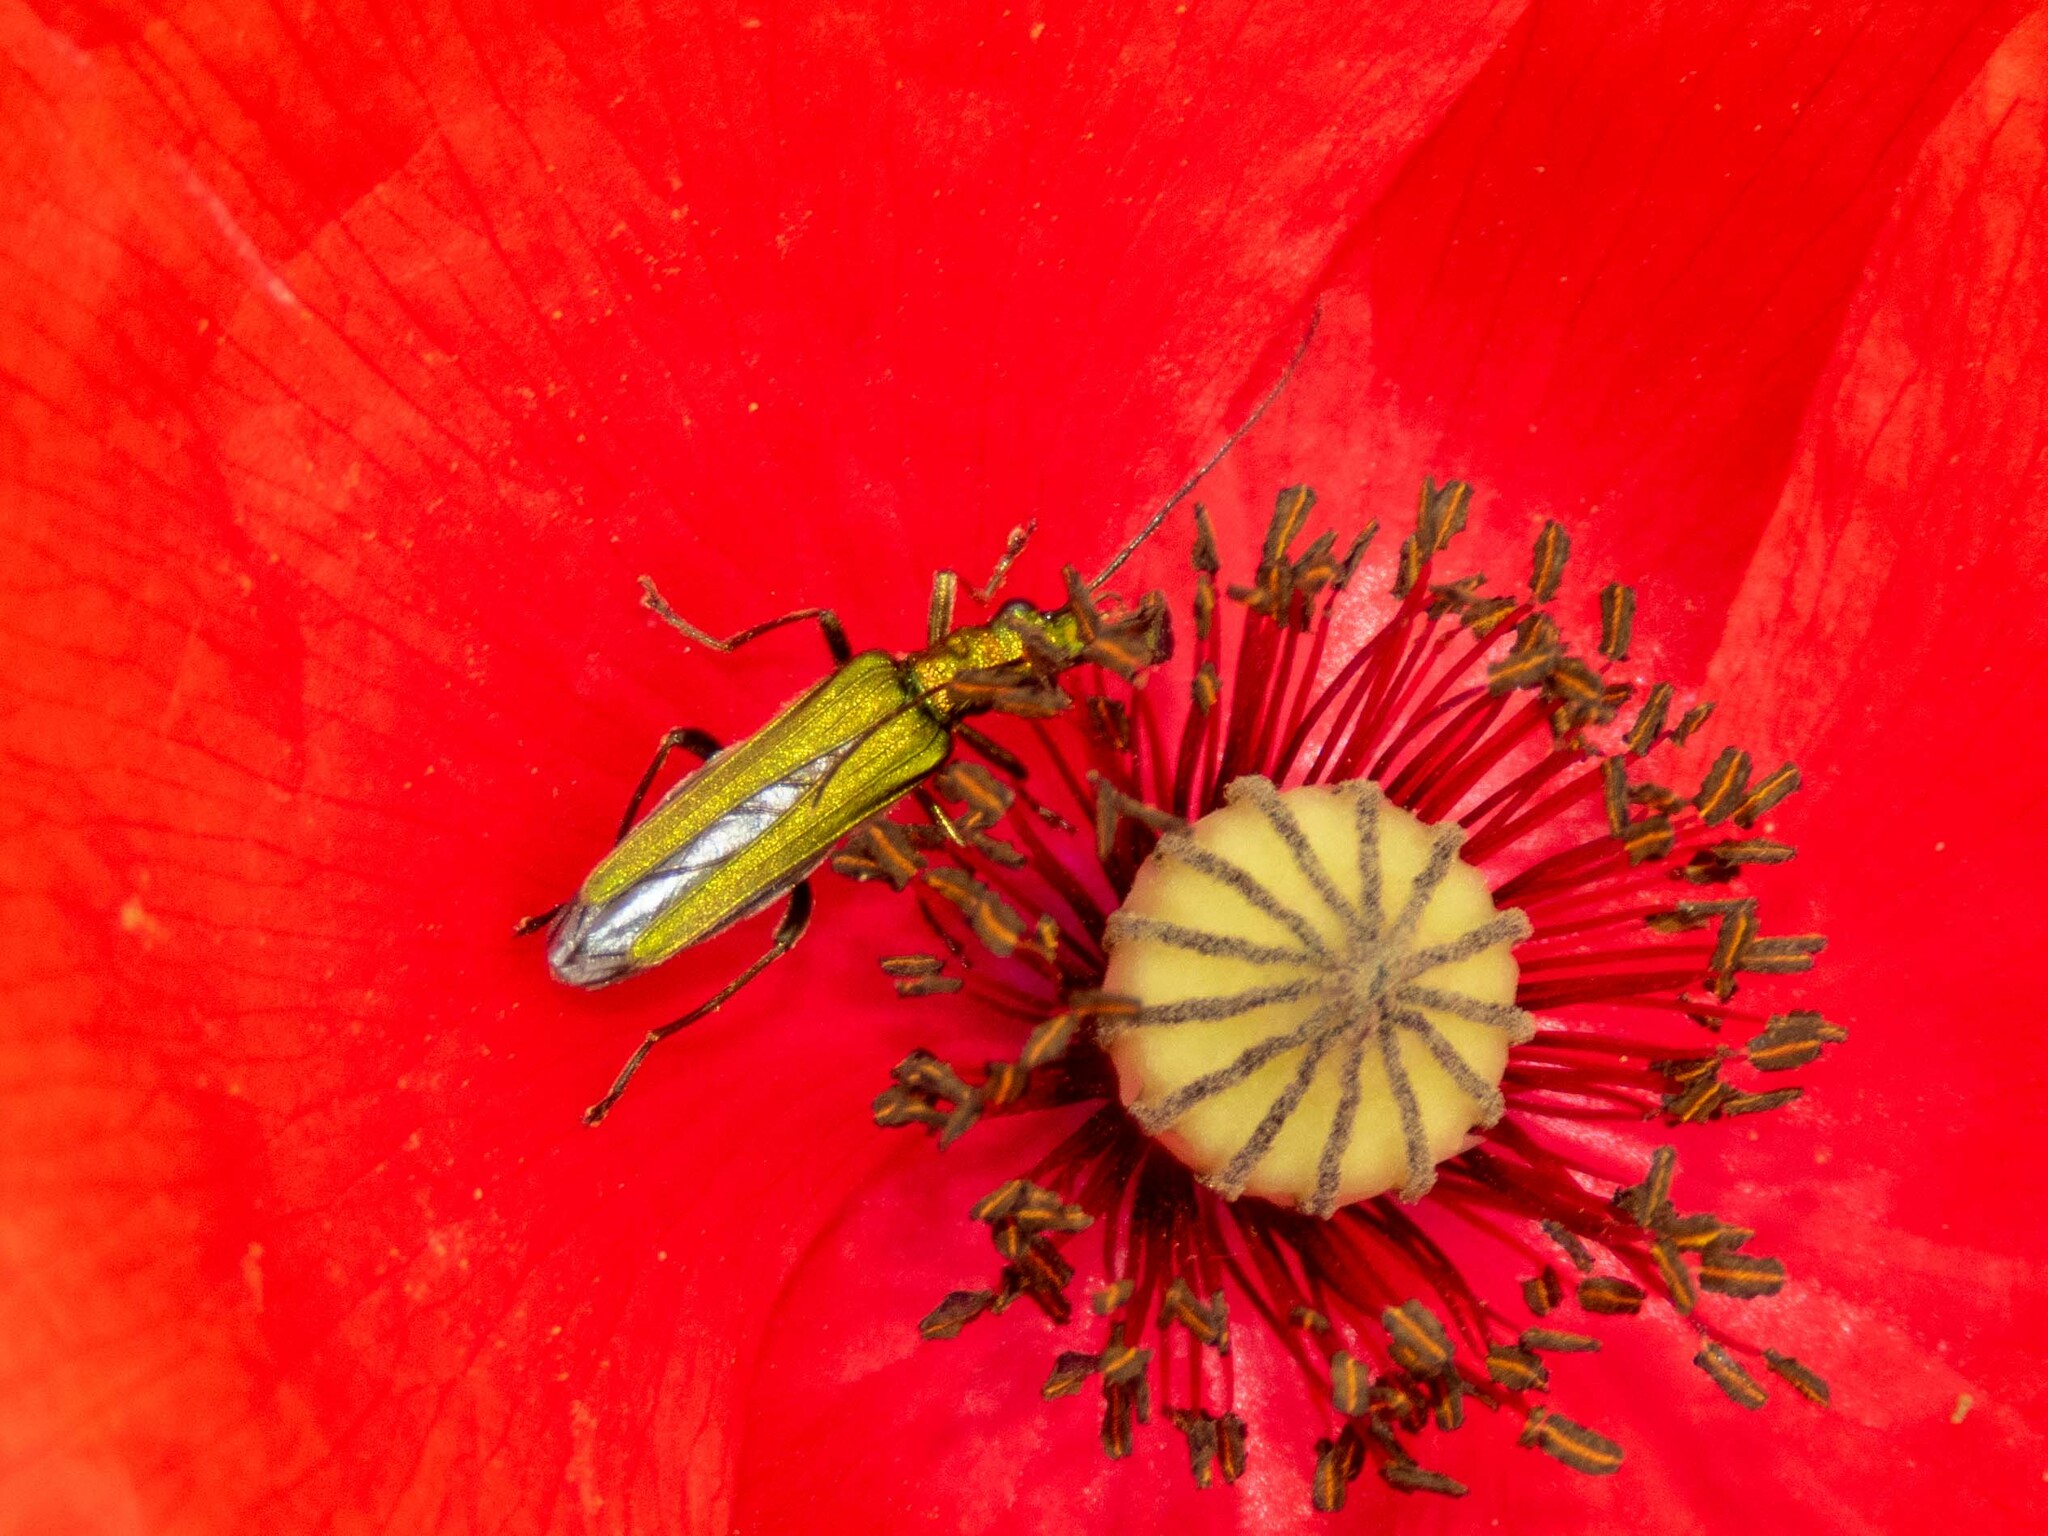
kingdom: Animalia
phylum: Arthropoda
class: Insecta
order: Coleoptera
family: Oedemeridae
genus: Oedemera
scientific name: Oedemera nobilis
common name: Swollen-thighed beetle
